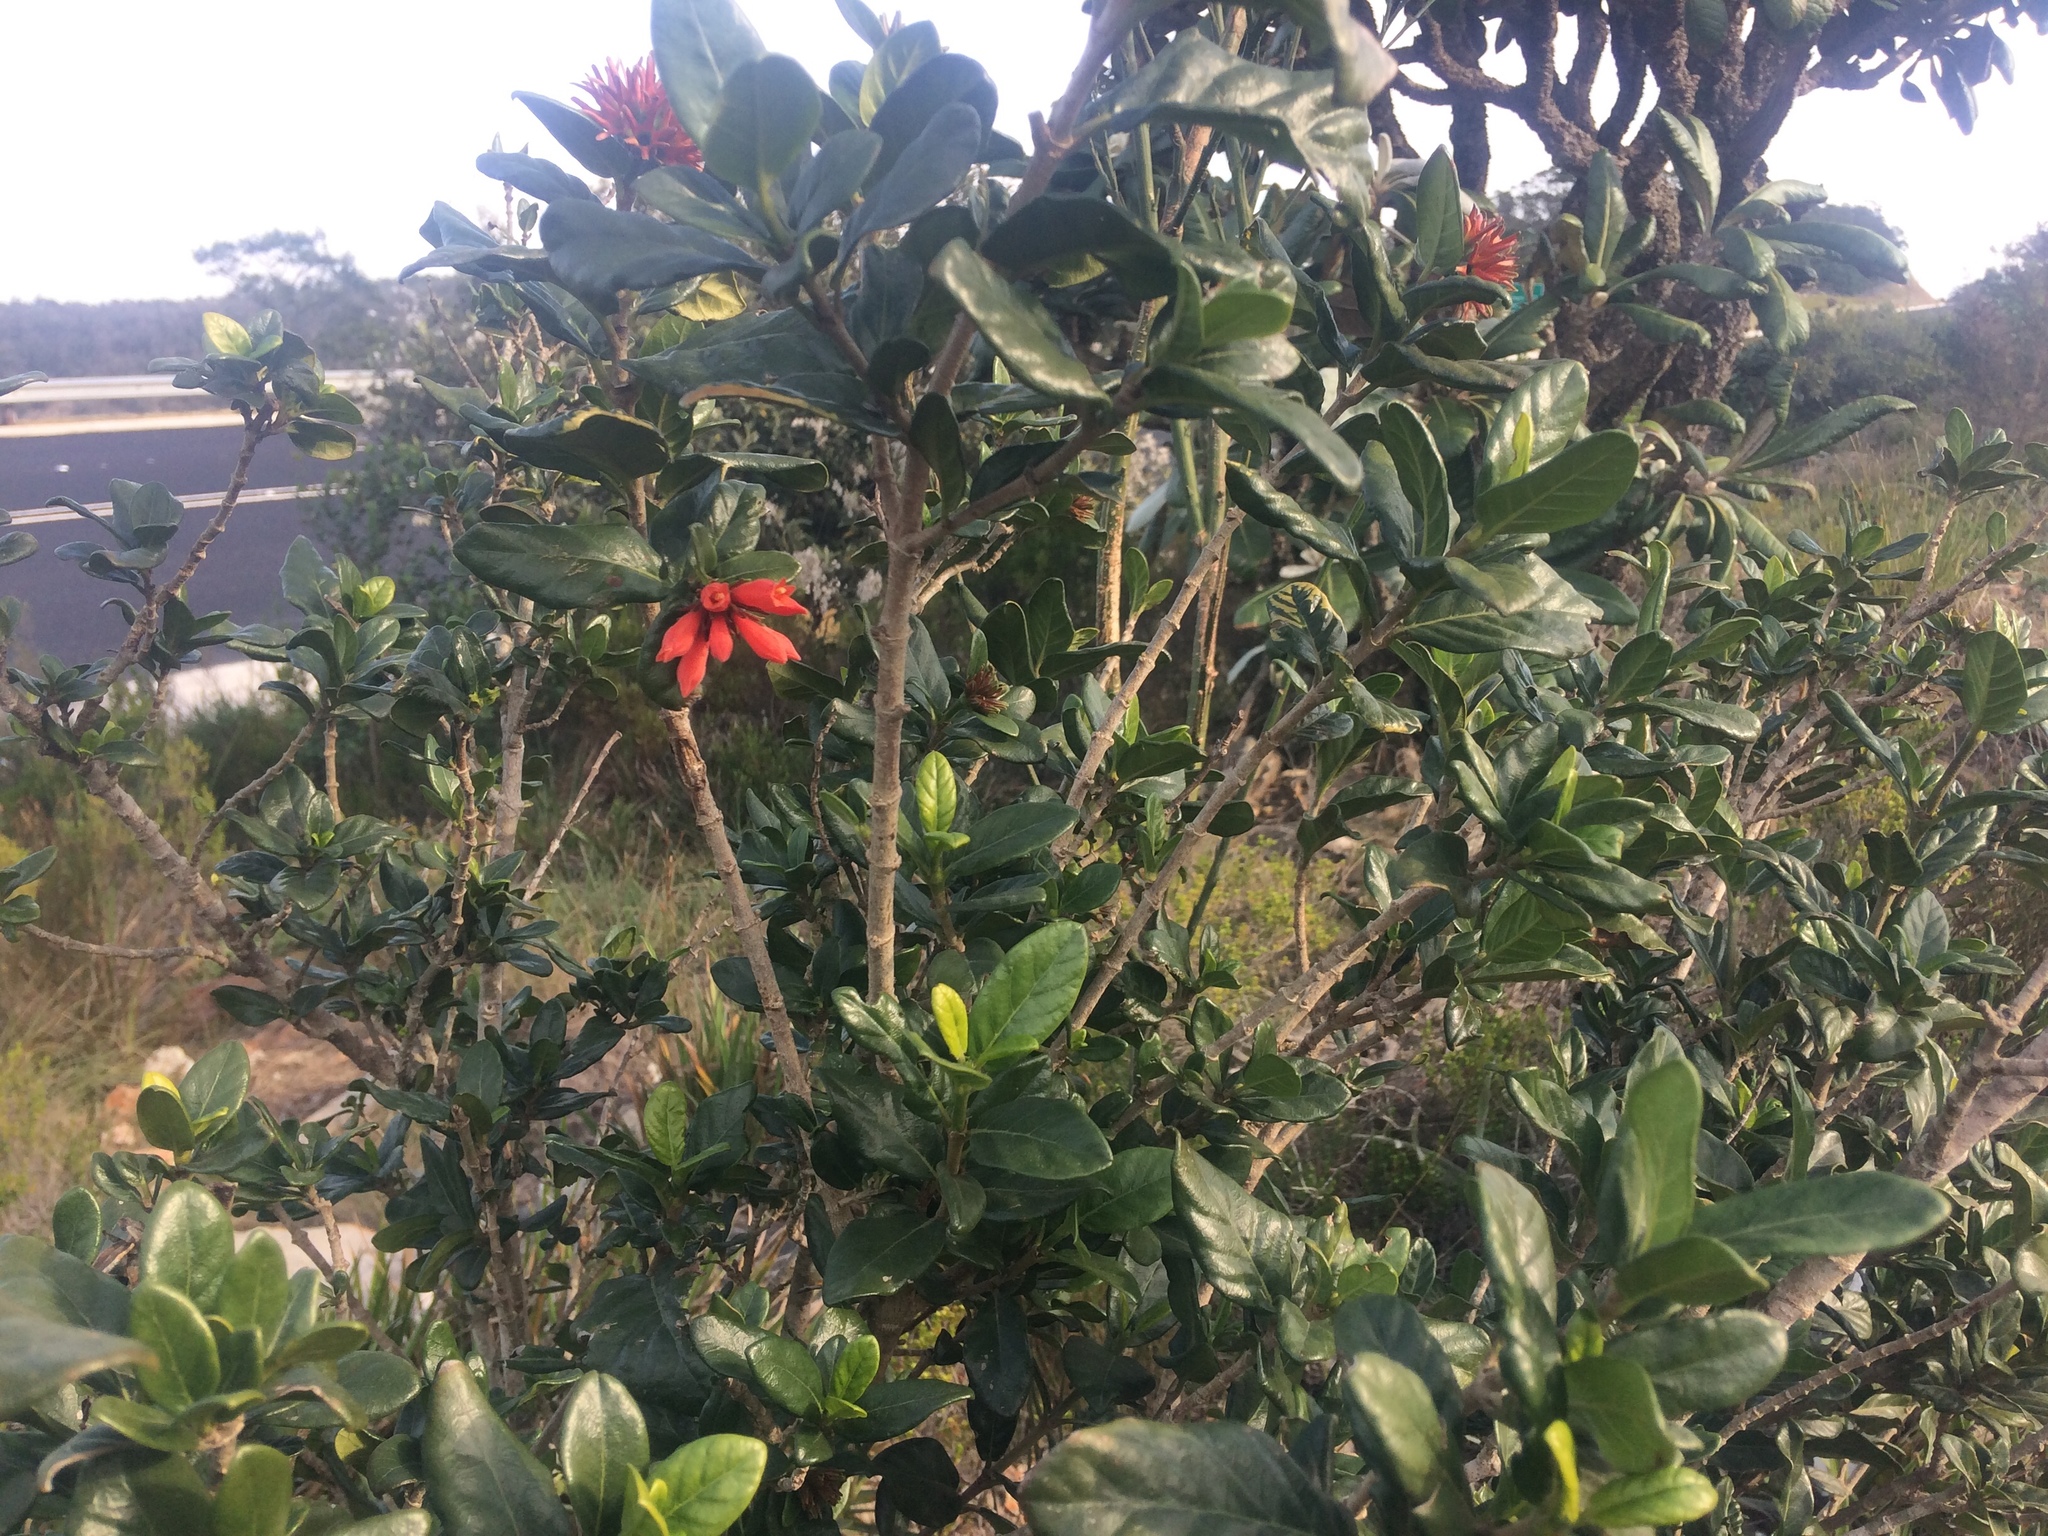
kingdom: Plantae
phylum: Tracheophyta
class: Magnoliopsida
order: Gentianales
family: Rubiaceae
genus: Burchellia
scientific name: Burchellia bubalina
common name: Wild pomegranate
